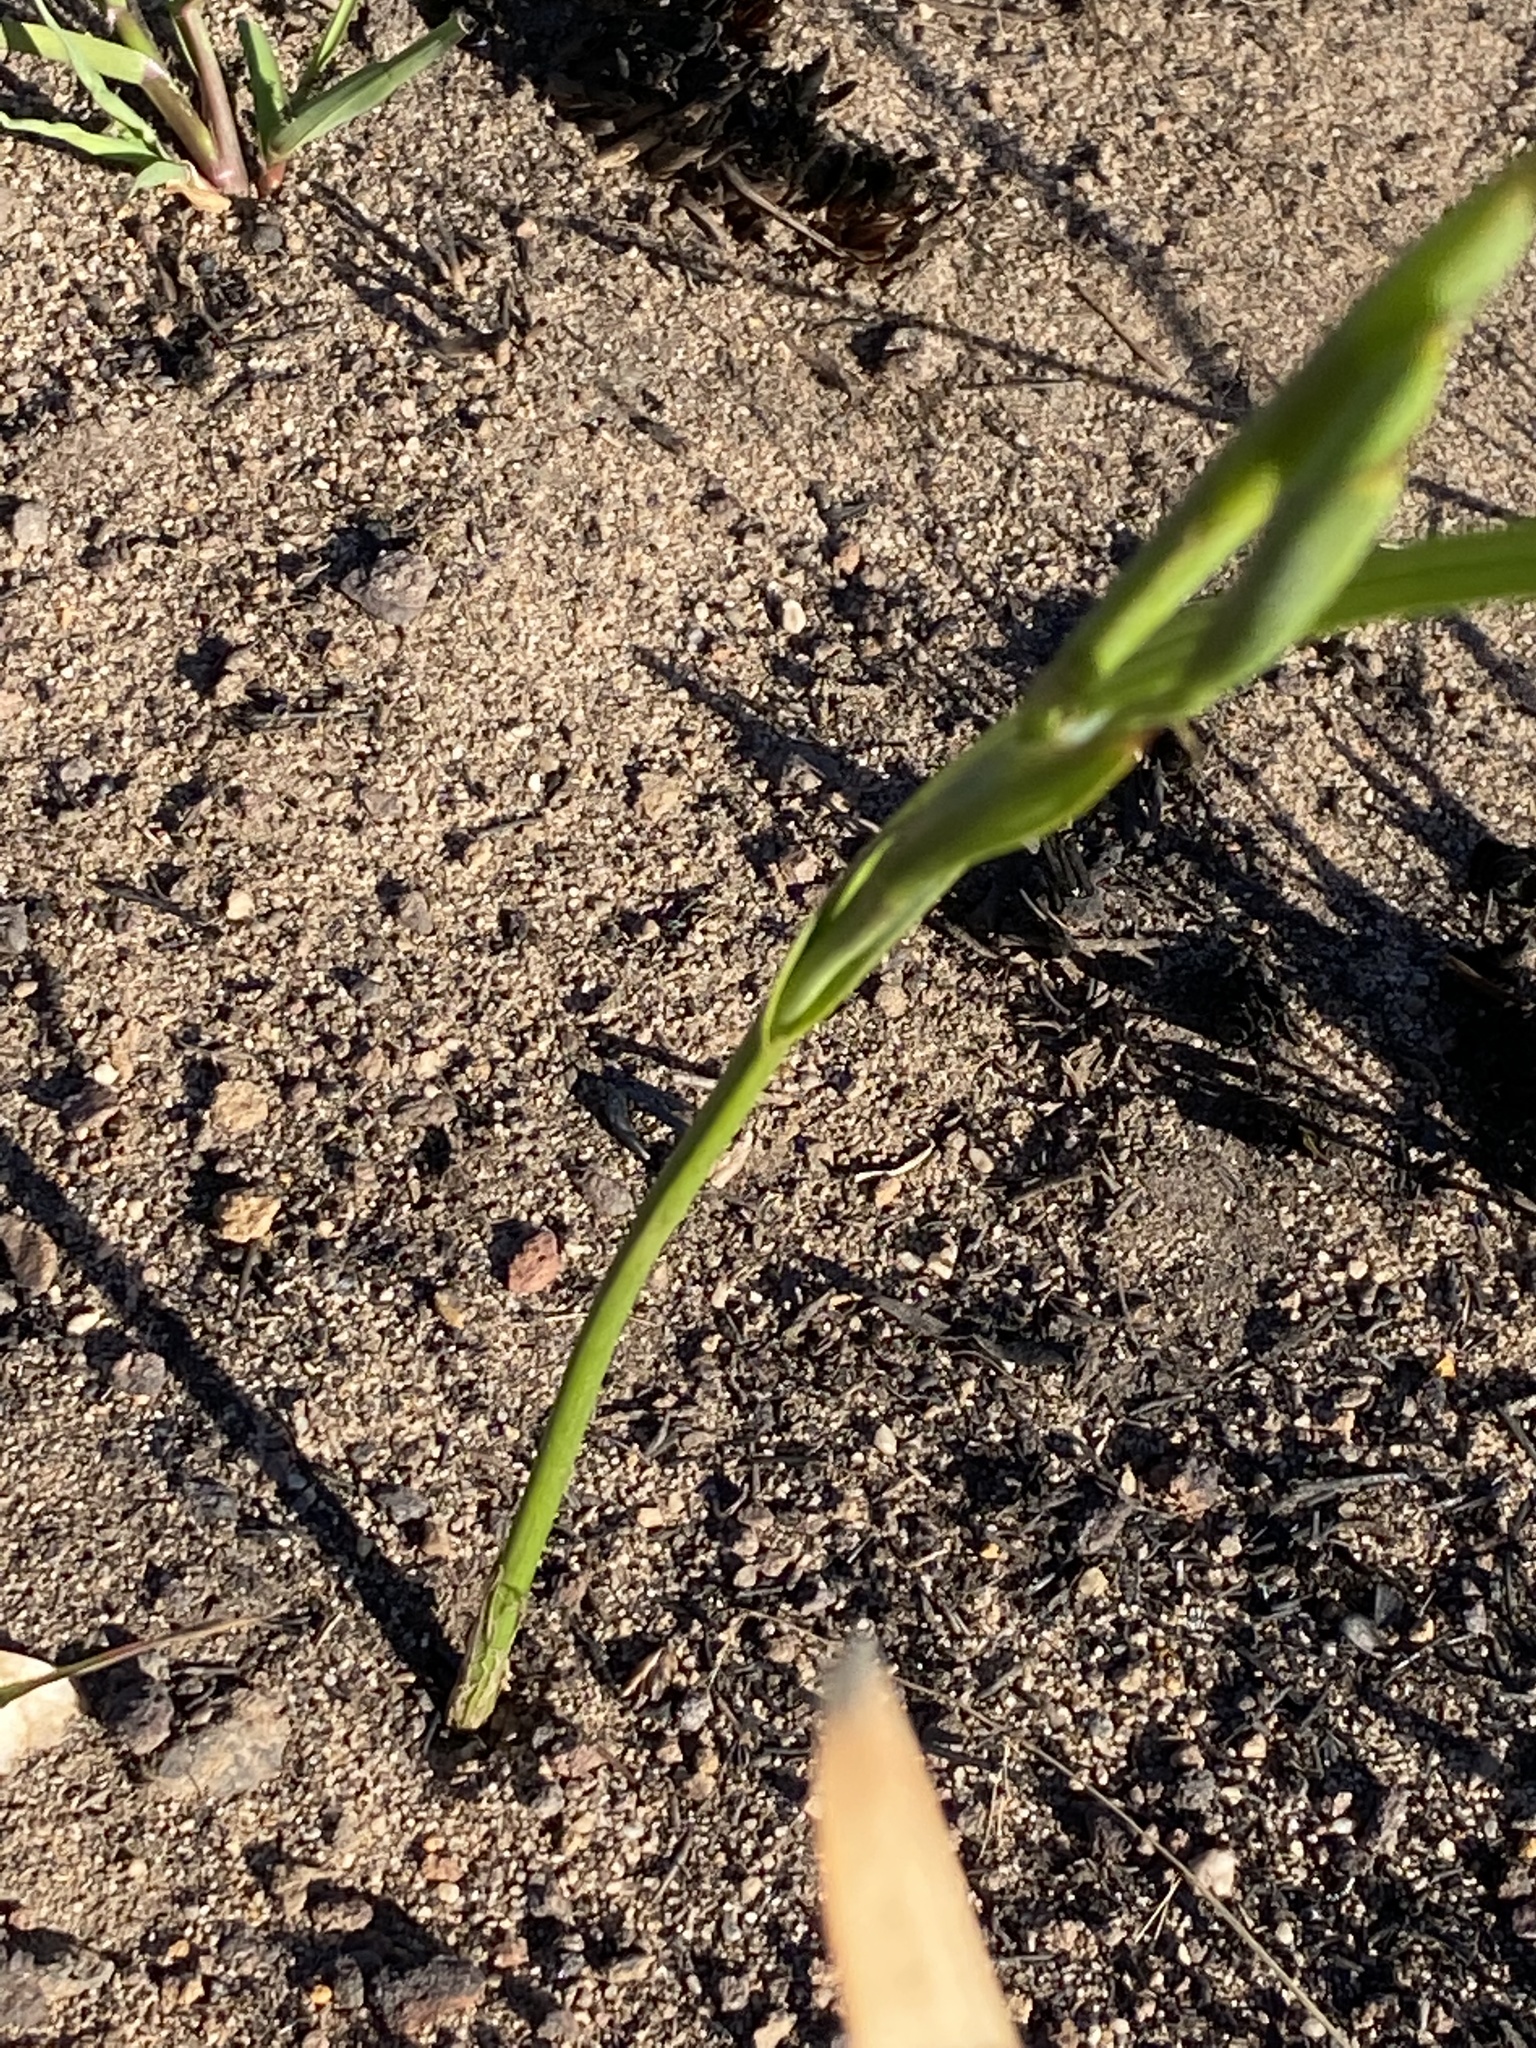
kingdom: Plantae
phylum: Tracheophyta
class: Liliopsida
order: Asparagales
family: Iridaceae
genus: Moraea
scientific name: Moraea ochroleuca
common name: Red tulp
